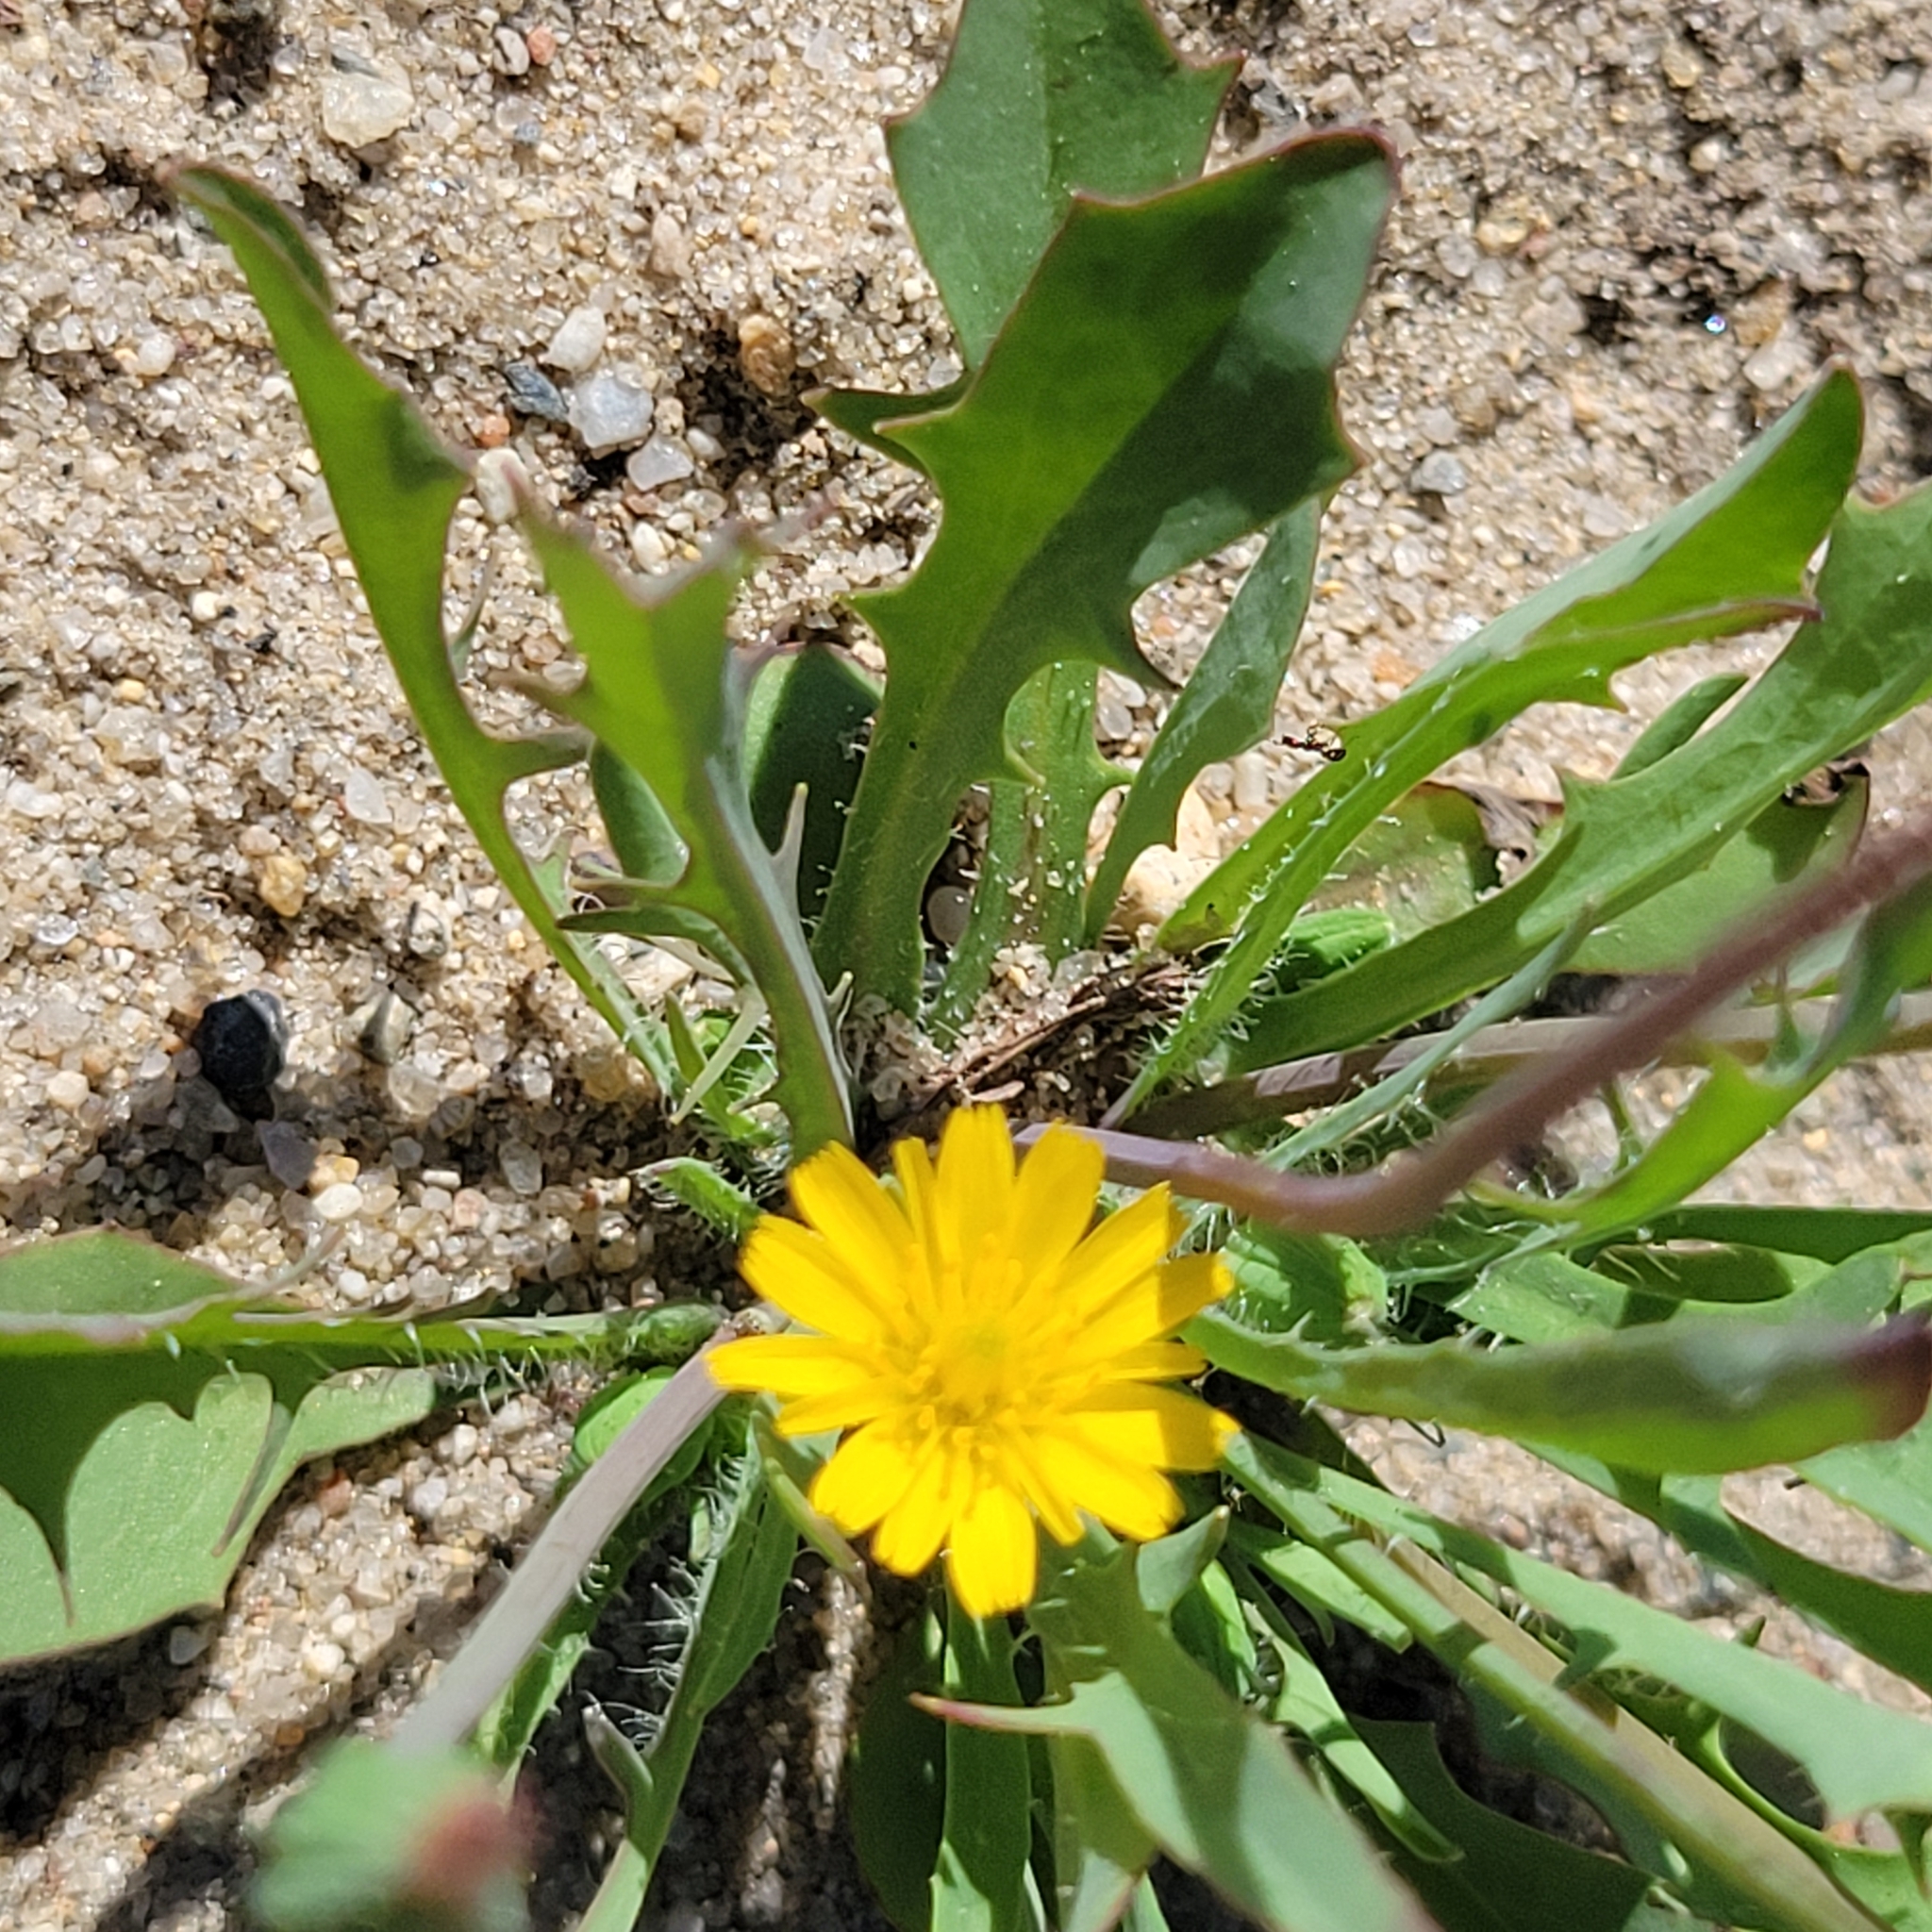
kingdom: Plantae
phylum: Tracheophyta
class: Magnoliopsida
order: Asterales
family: Asteraceae
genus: Krigia
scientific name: Krigia virginica
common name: Virginia dwarf-dandelion
